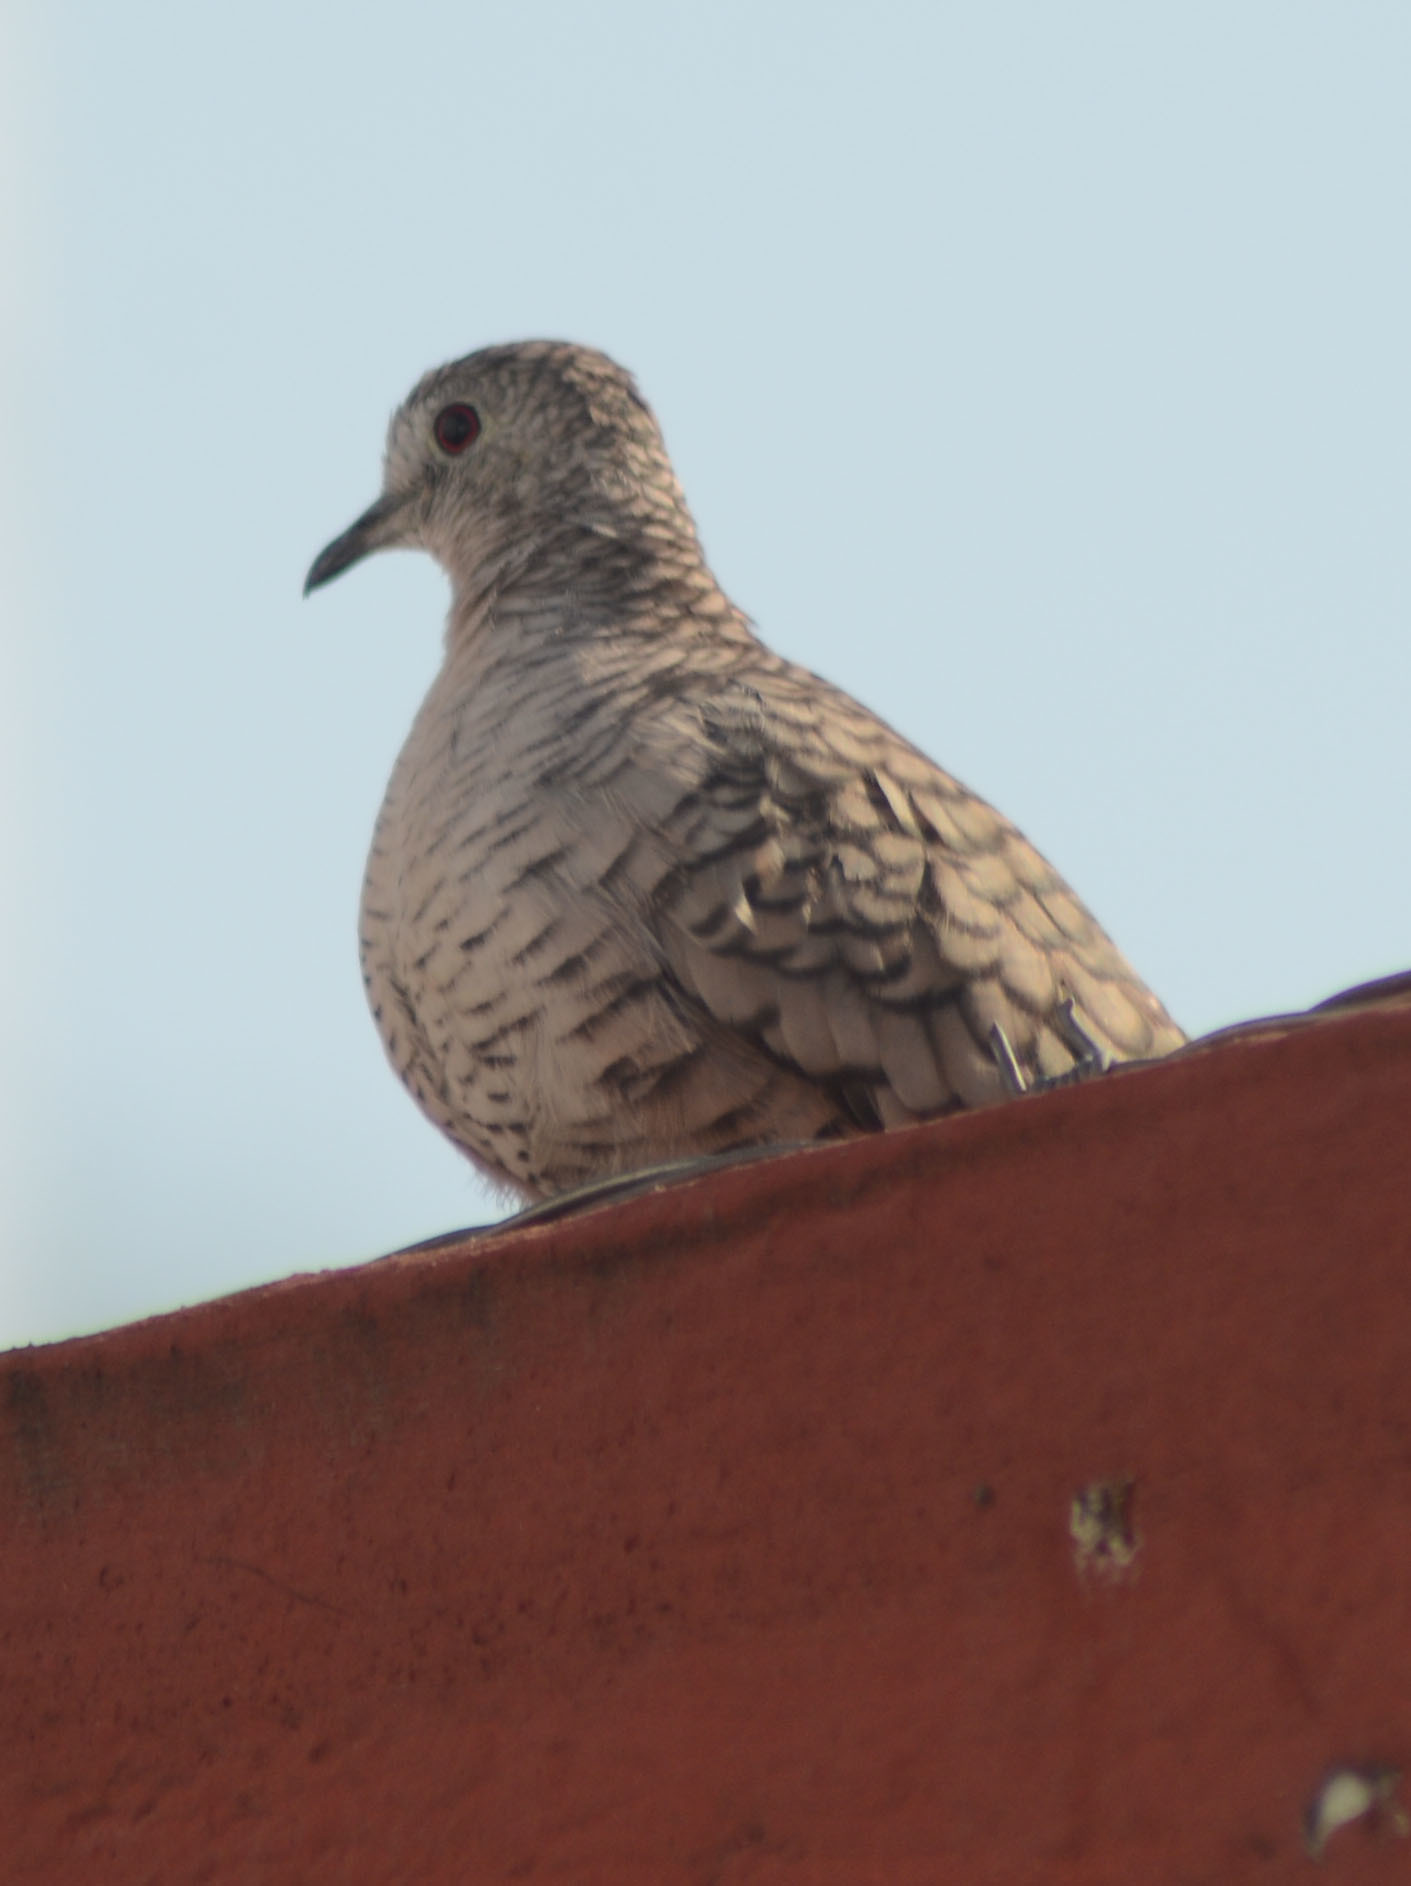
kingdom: Animalia
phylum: Chordata
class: Aves
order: Columbiformes
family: Columbidae
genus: Columbina
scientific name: Columbina inca
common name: Inca dove
